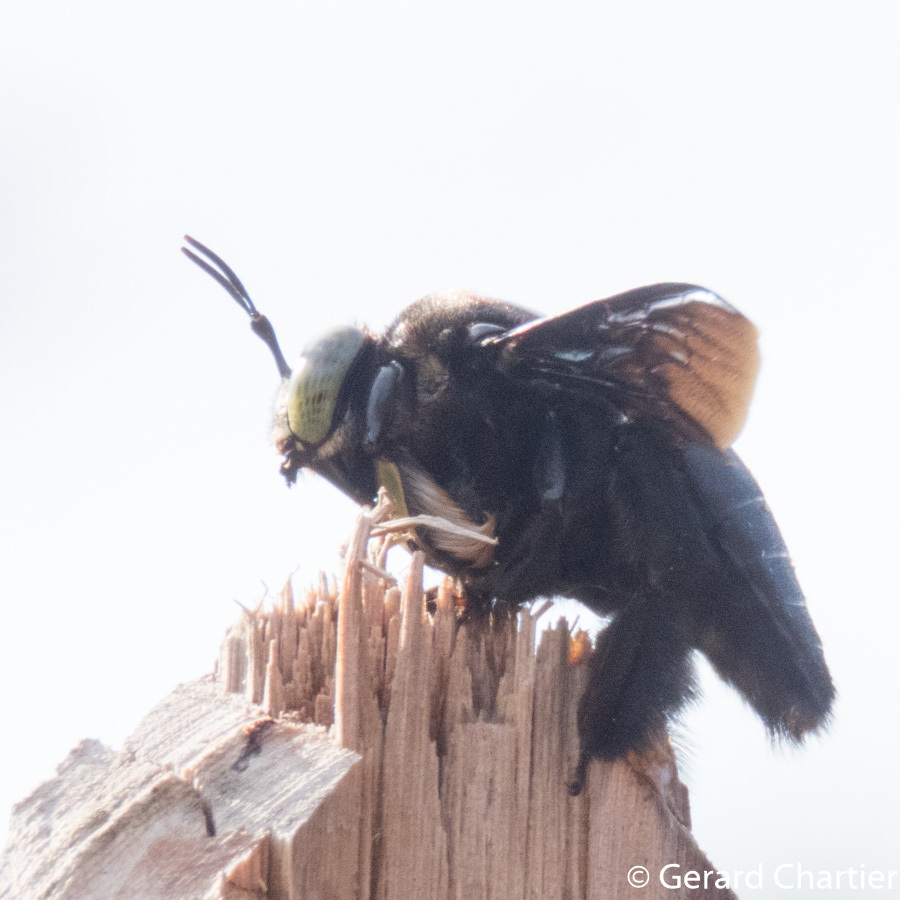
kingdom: Animalia
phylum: Arthropoda
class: Insecta
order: Hymenoptera
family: Apidae
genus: Xylocopa
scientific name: Xylocopa latipes
